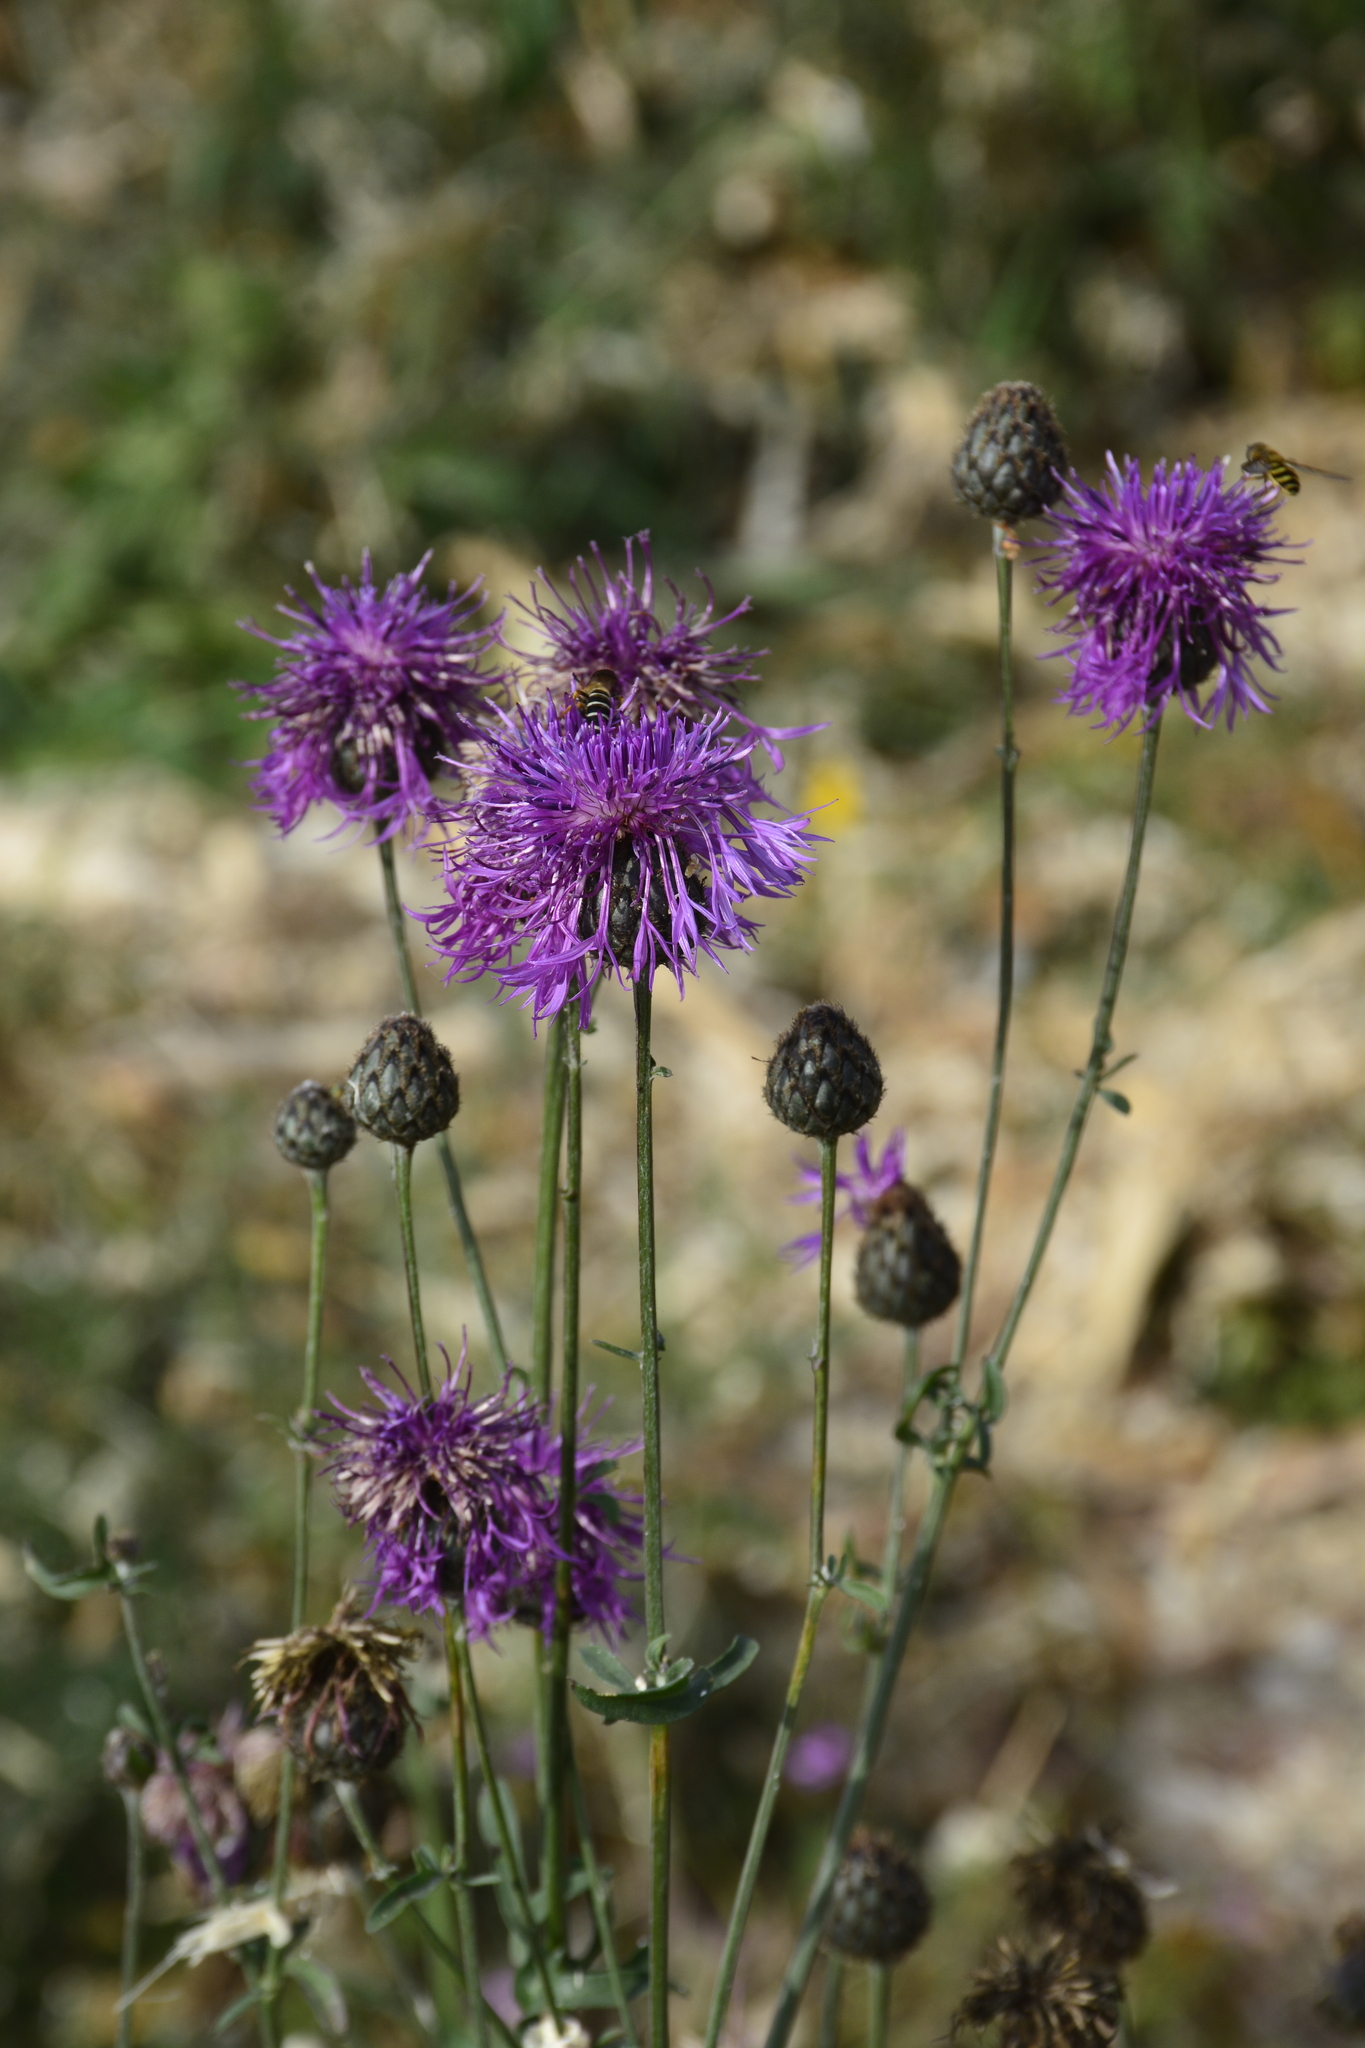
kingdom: Plantae
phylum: Tracheophyta
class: Magnoliopsida
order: Asterales
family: Asteraceae
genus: Centaurea
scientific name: Centaurea scabiosa
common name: Greater knapweed
